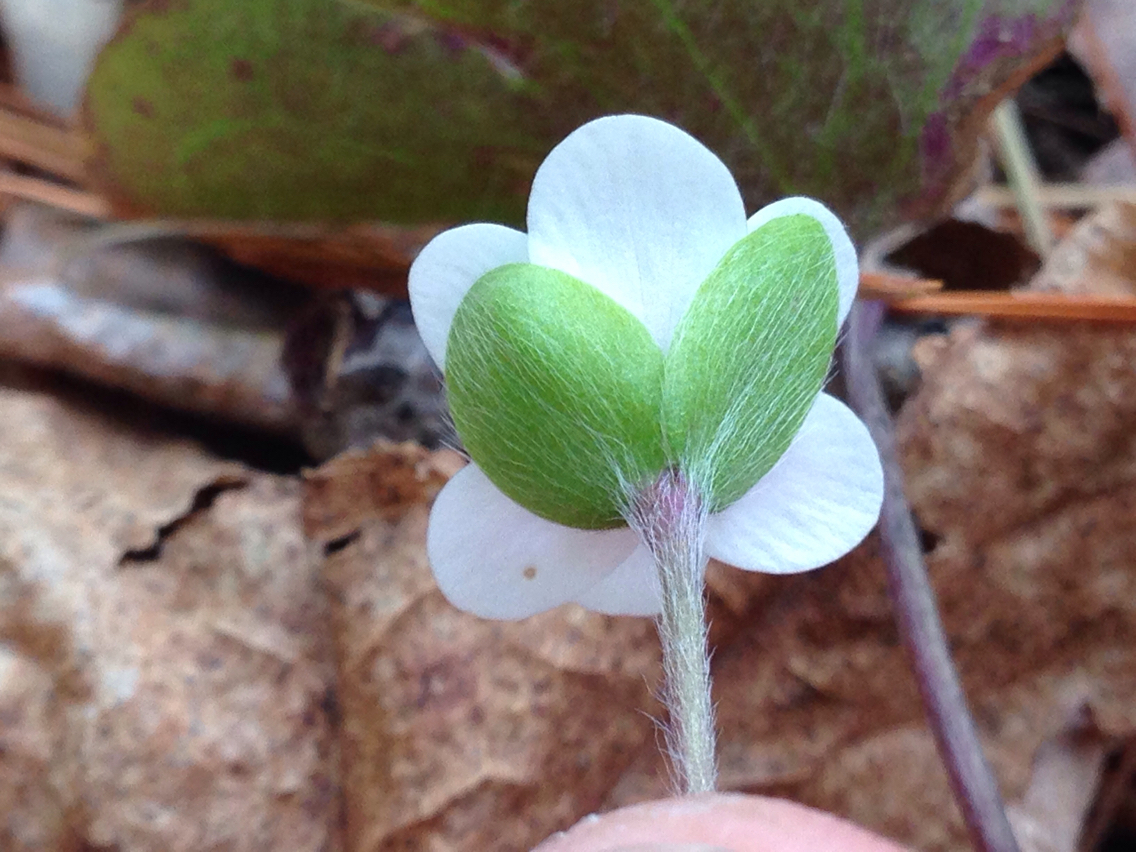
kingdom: Plantae
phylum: Tracheophyta
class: Magnoliopsida
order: Ranunculales
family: Ranunculaceae
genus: Hepatica
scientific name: Hepatica americana
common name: American hepatica
